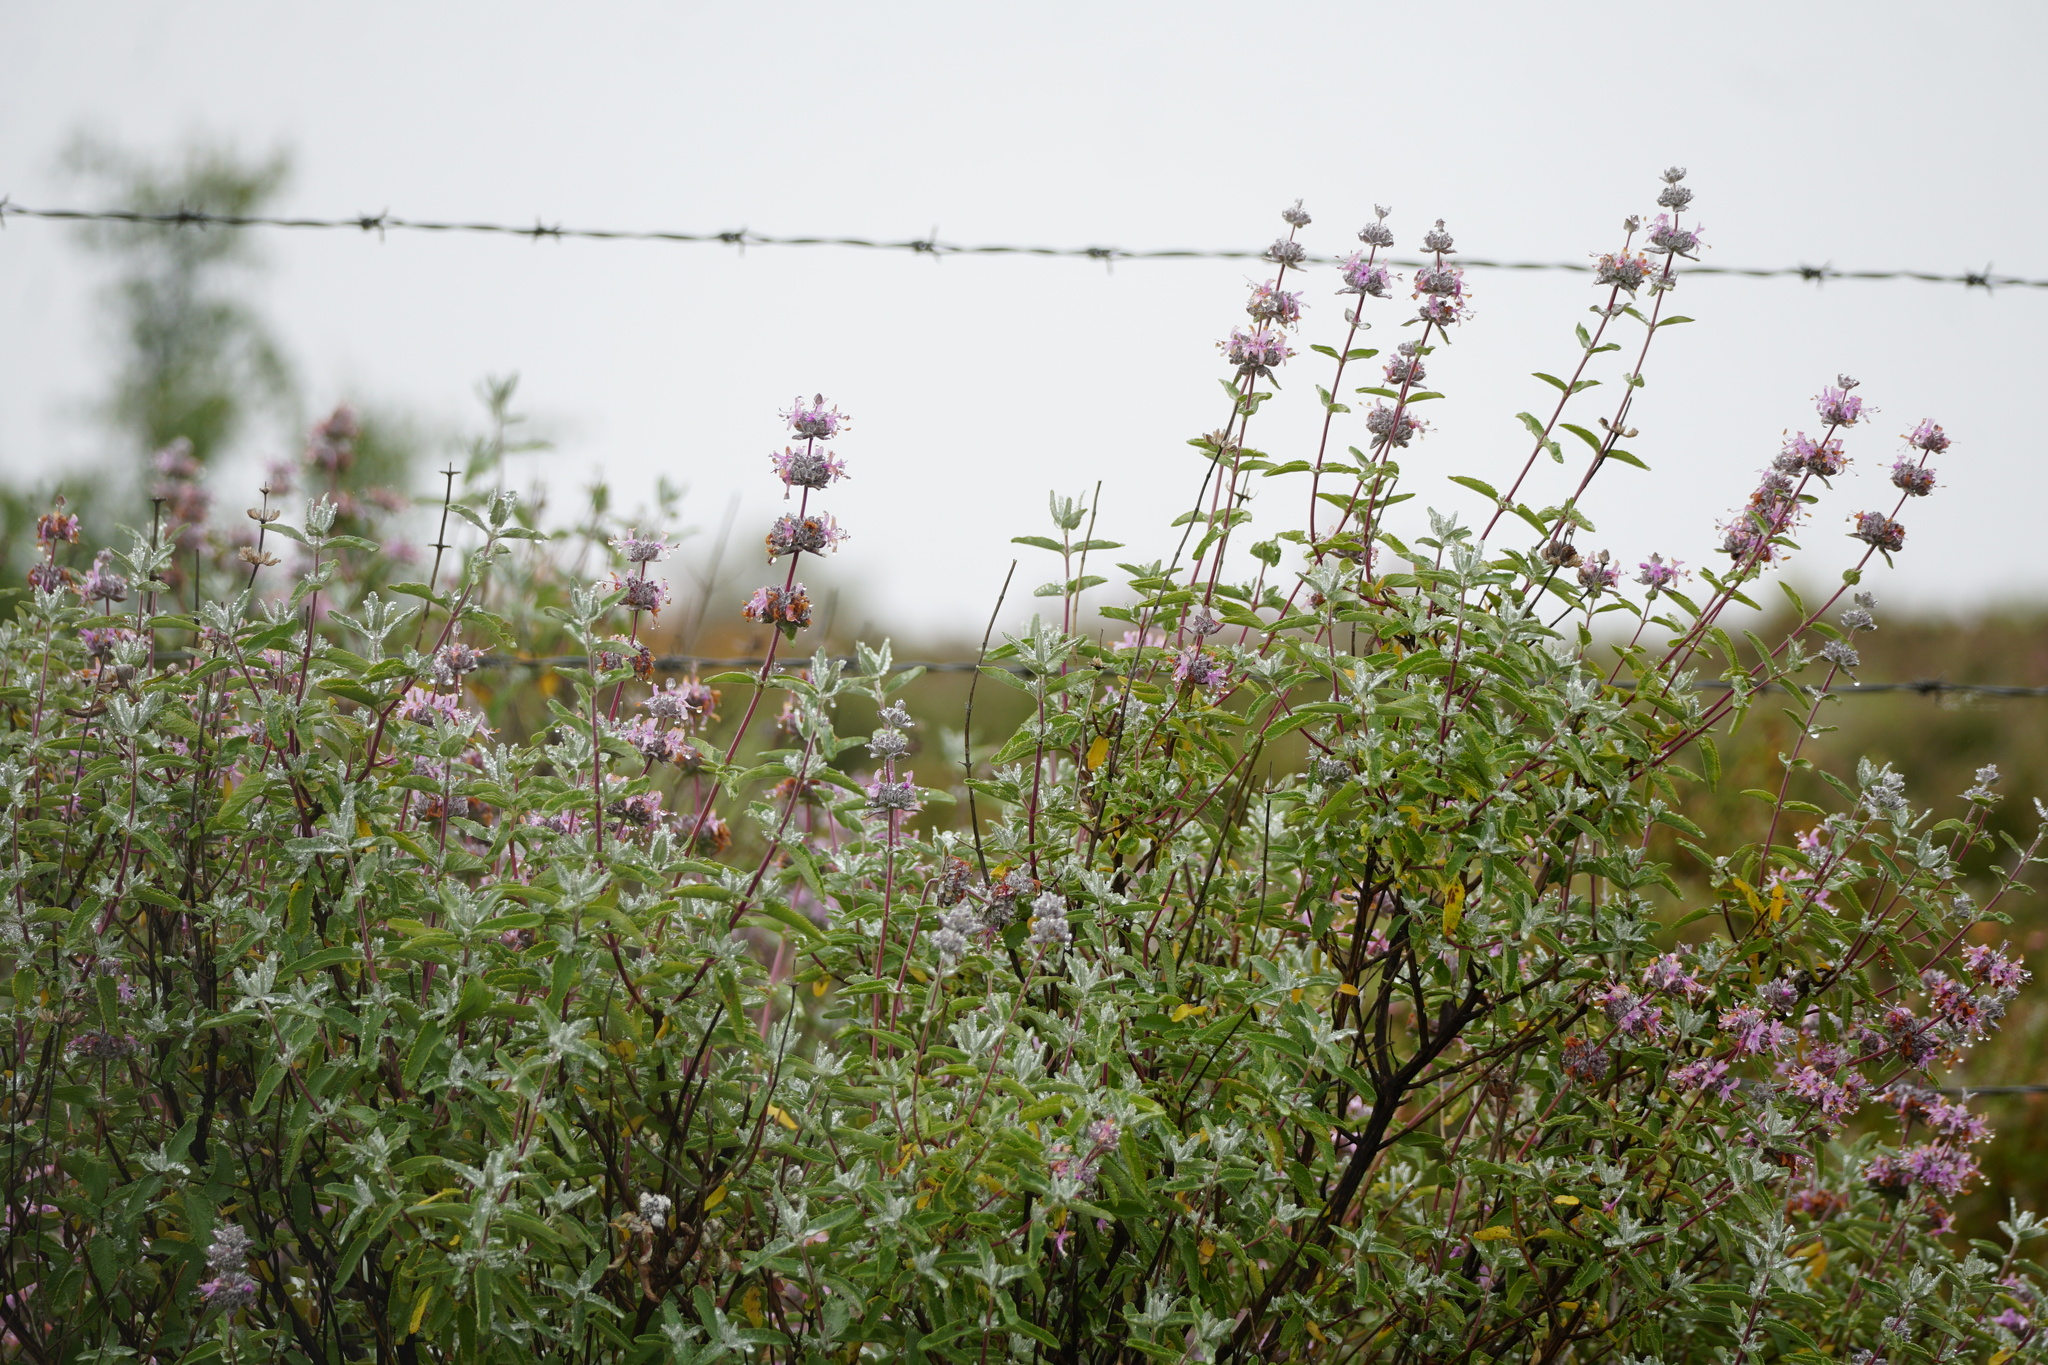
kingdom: Plantae
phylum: Tracheophyta
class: Magnoliopsida
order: Lamiales
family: Lamiaceae
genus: Salvia
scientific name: Salvia leucophylla
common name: Purple sage
